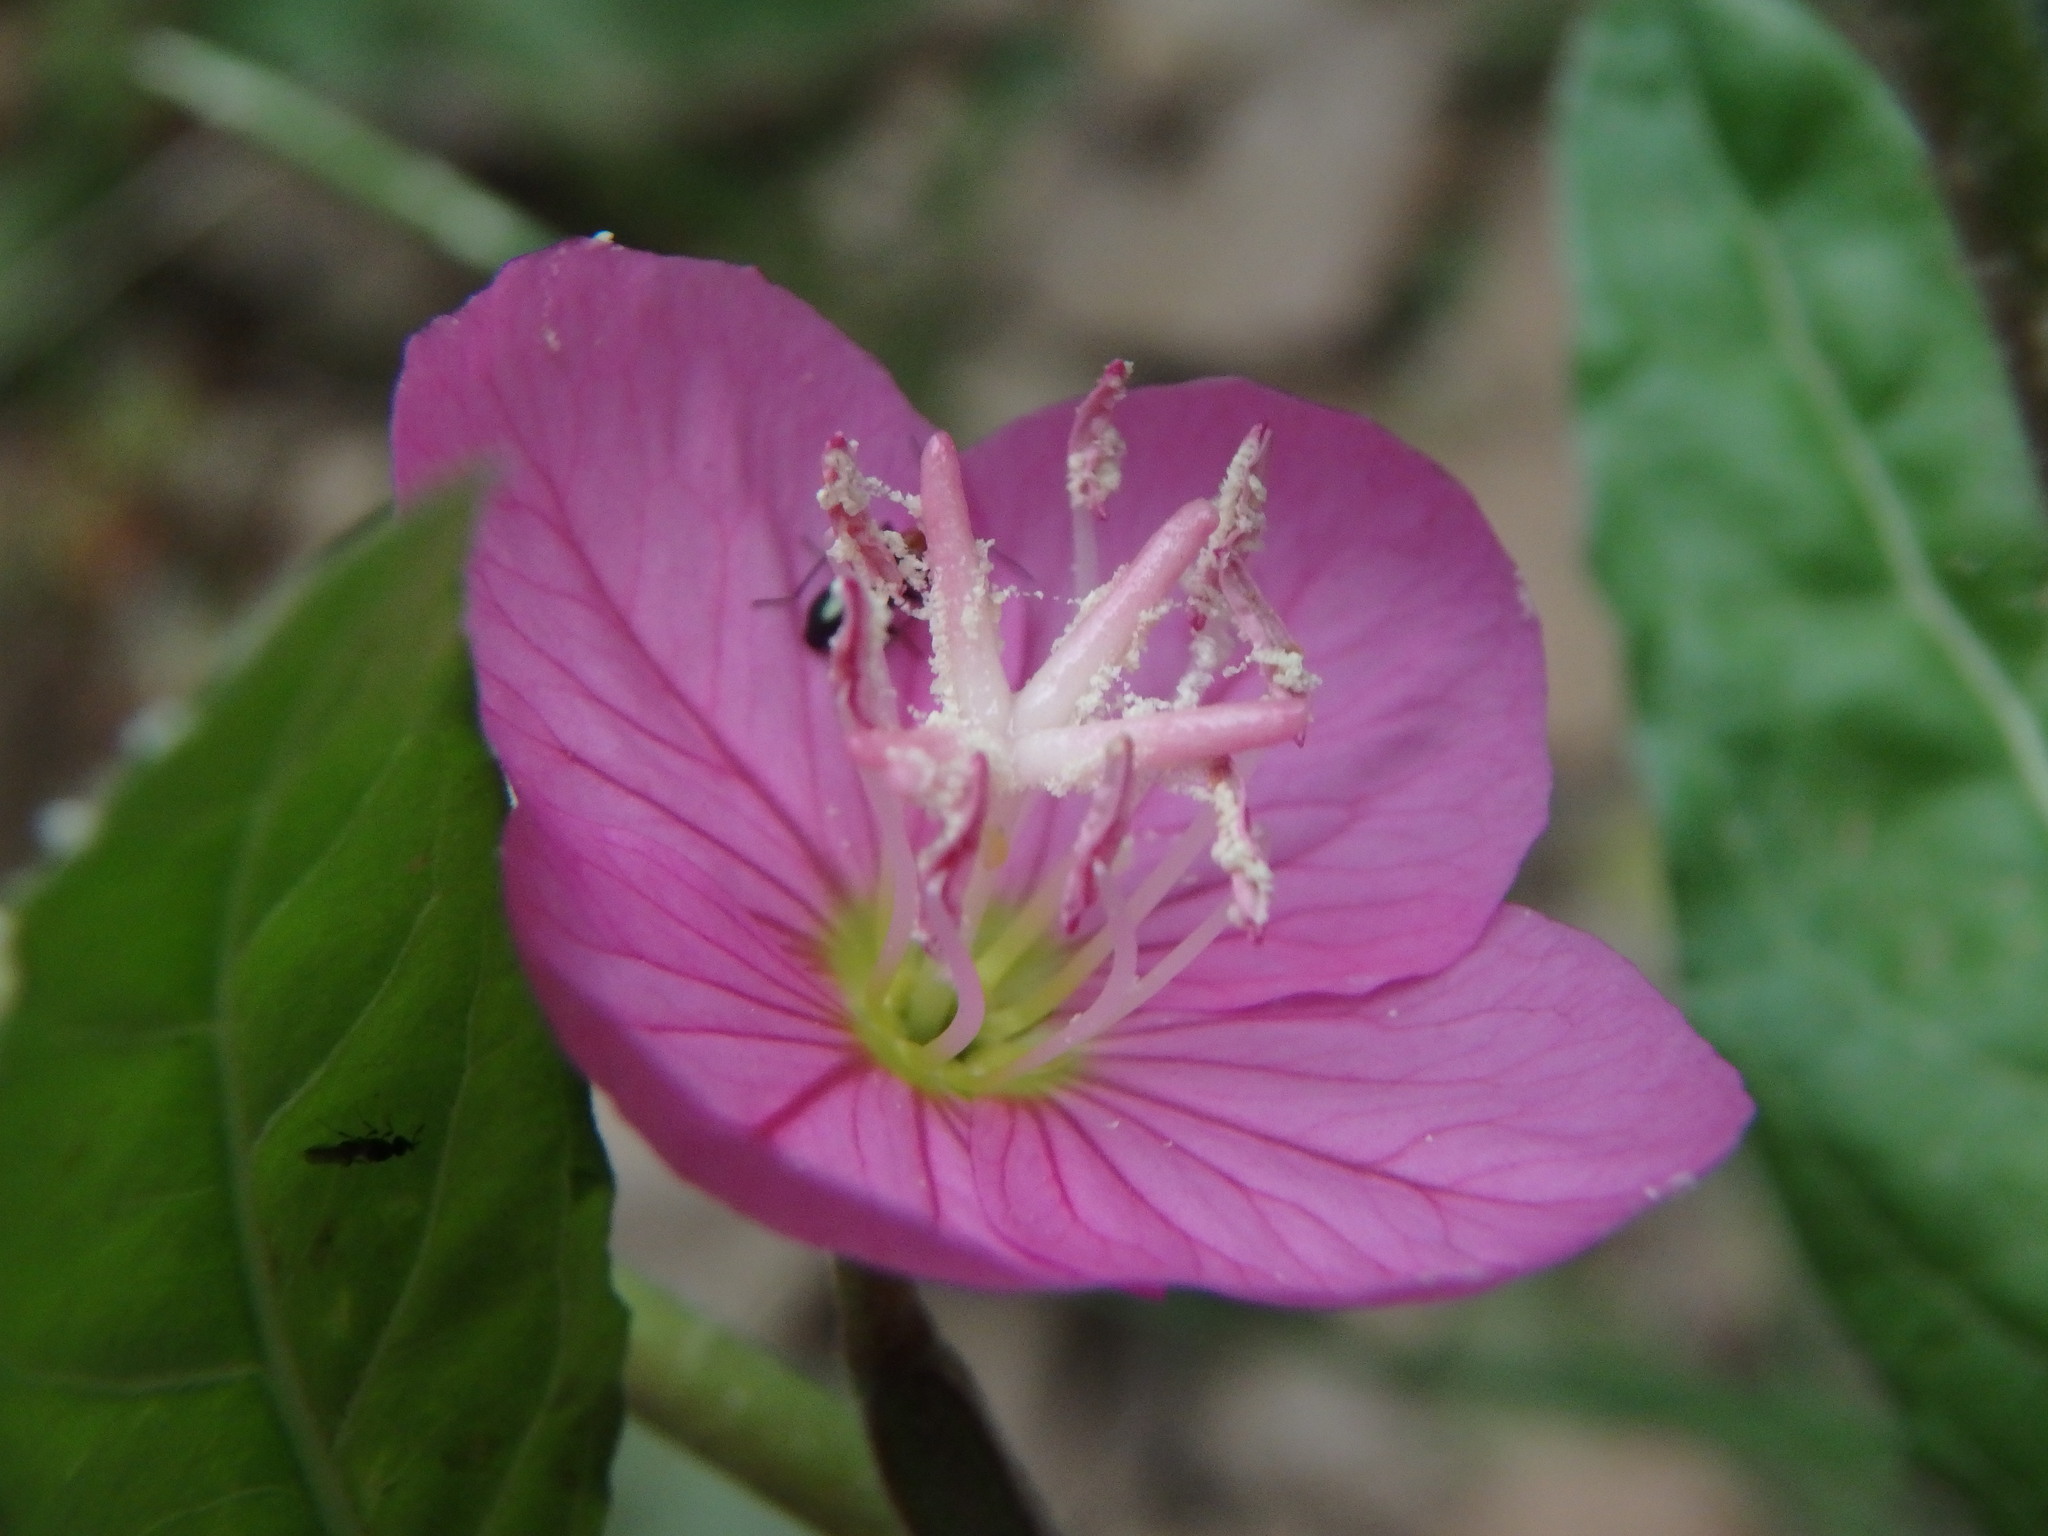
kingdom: Plantae
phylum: Tracheophyta
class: Magnoliopsida
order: Myrtales
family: Onagraceae
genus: Oenothera
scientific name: Oenothera rosea
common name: Rosy evening-primrose
